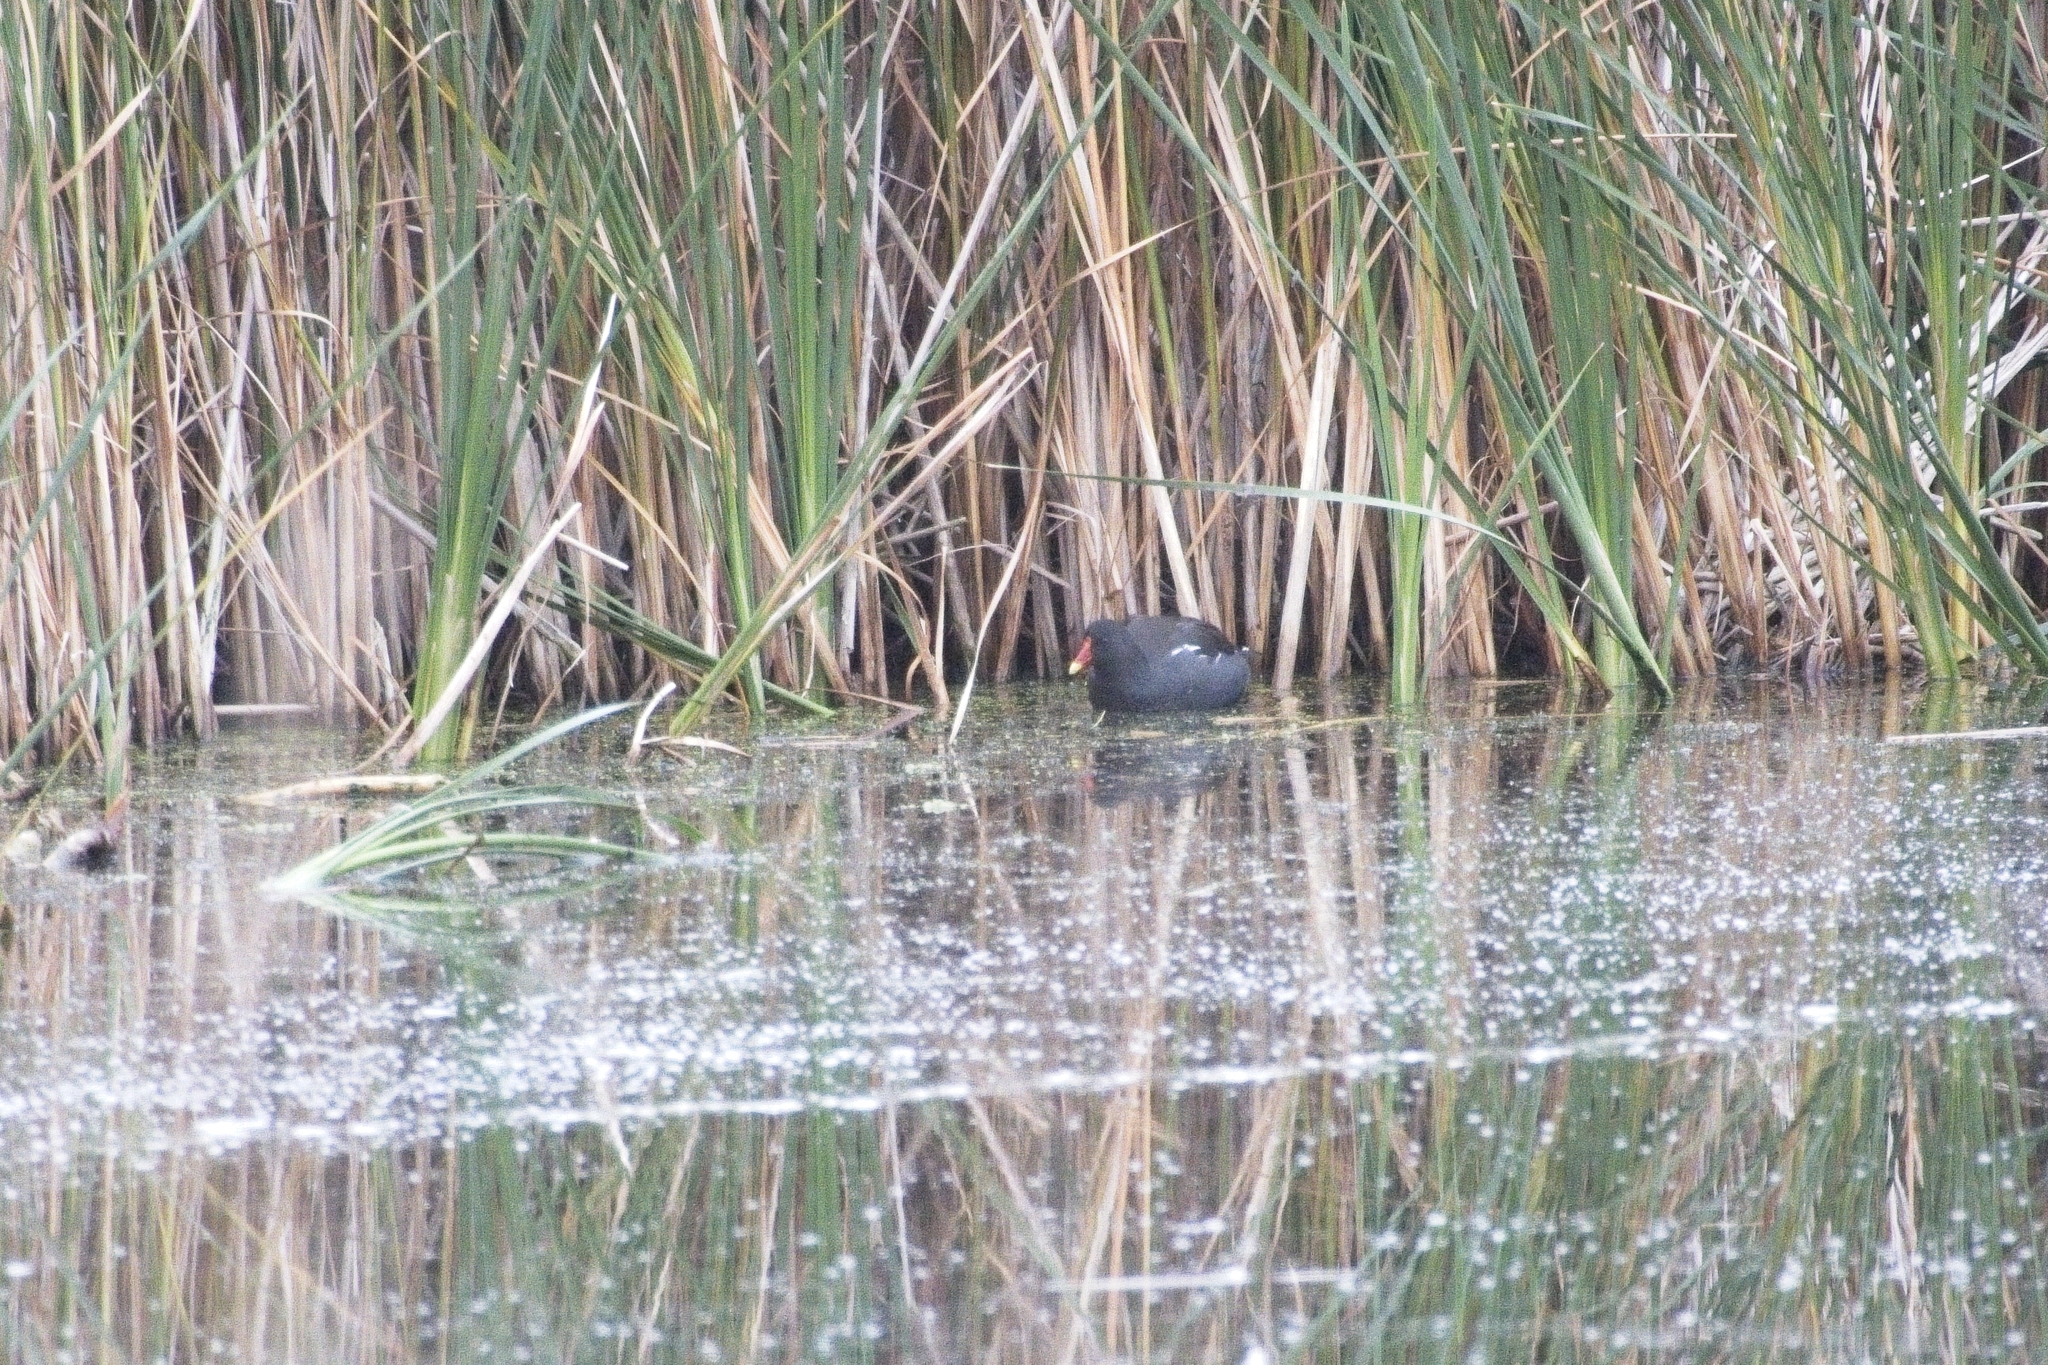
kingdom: Animalia
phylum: Chordata
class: Aves
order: Gruiformes
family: Rallidae
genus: Gallinula
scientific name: Gallinula chloropus
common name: Common moorhen
